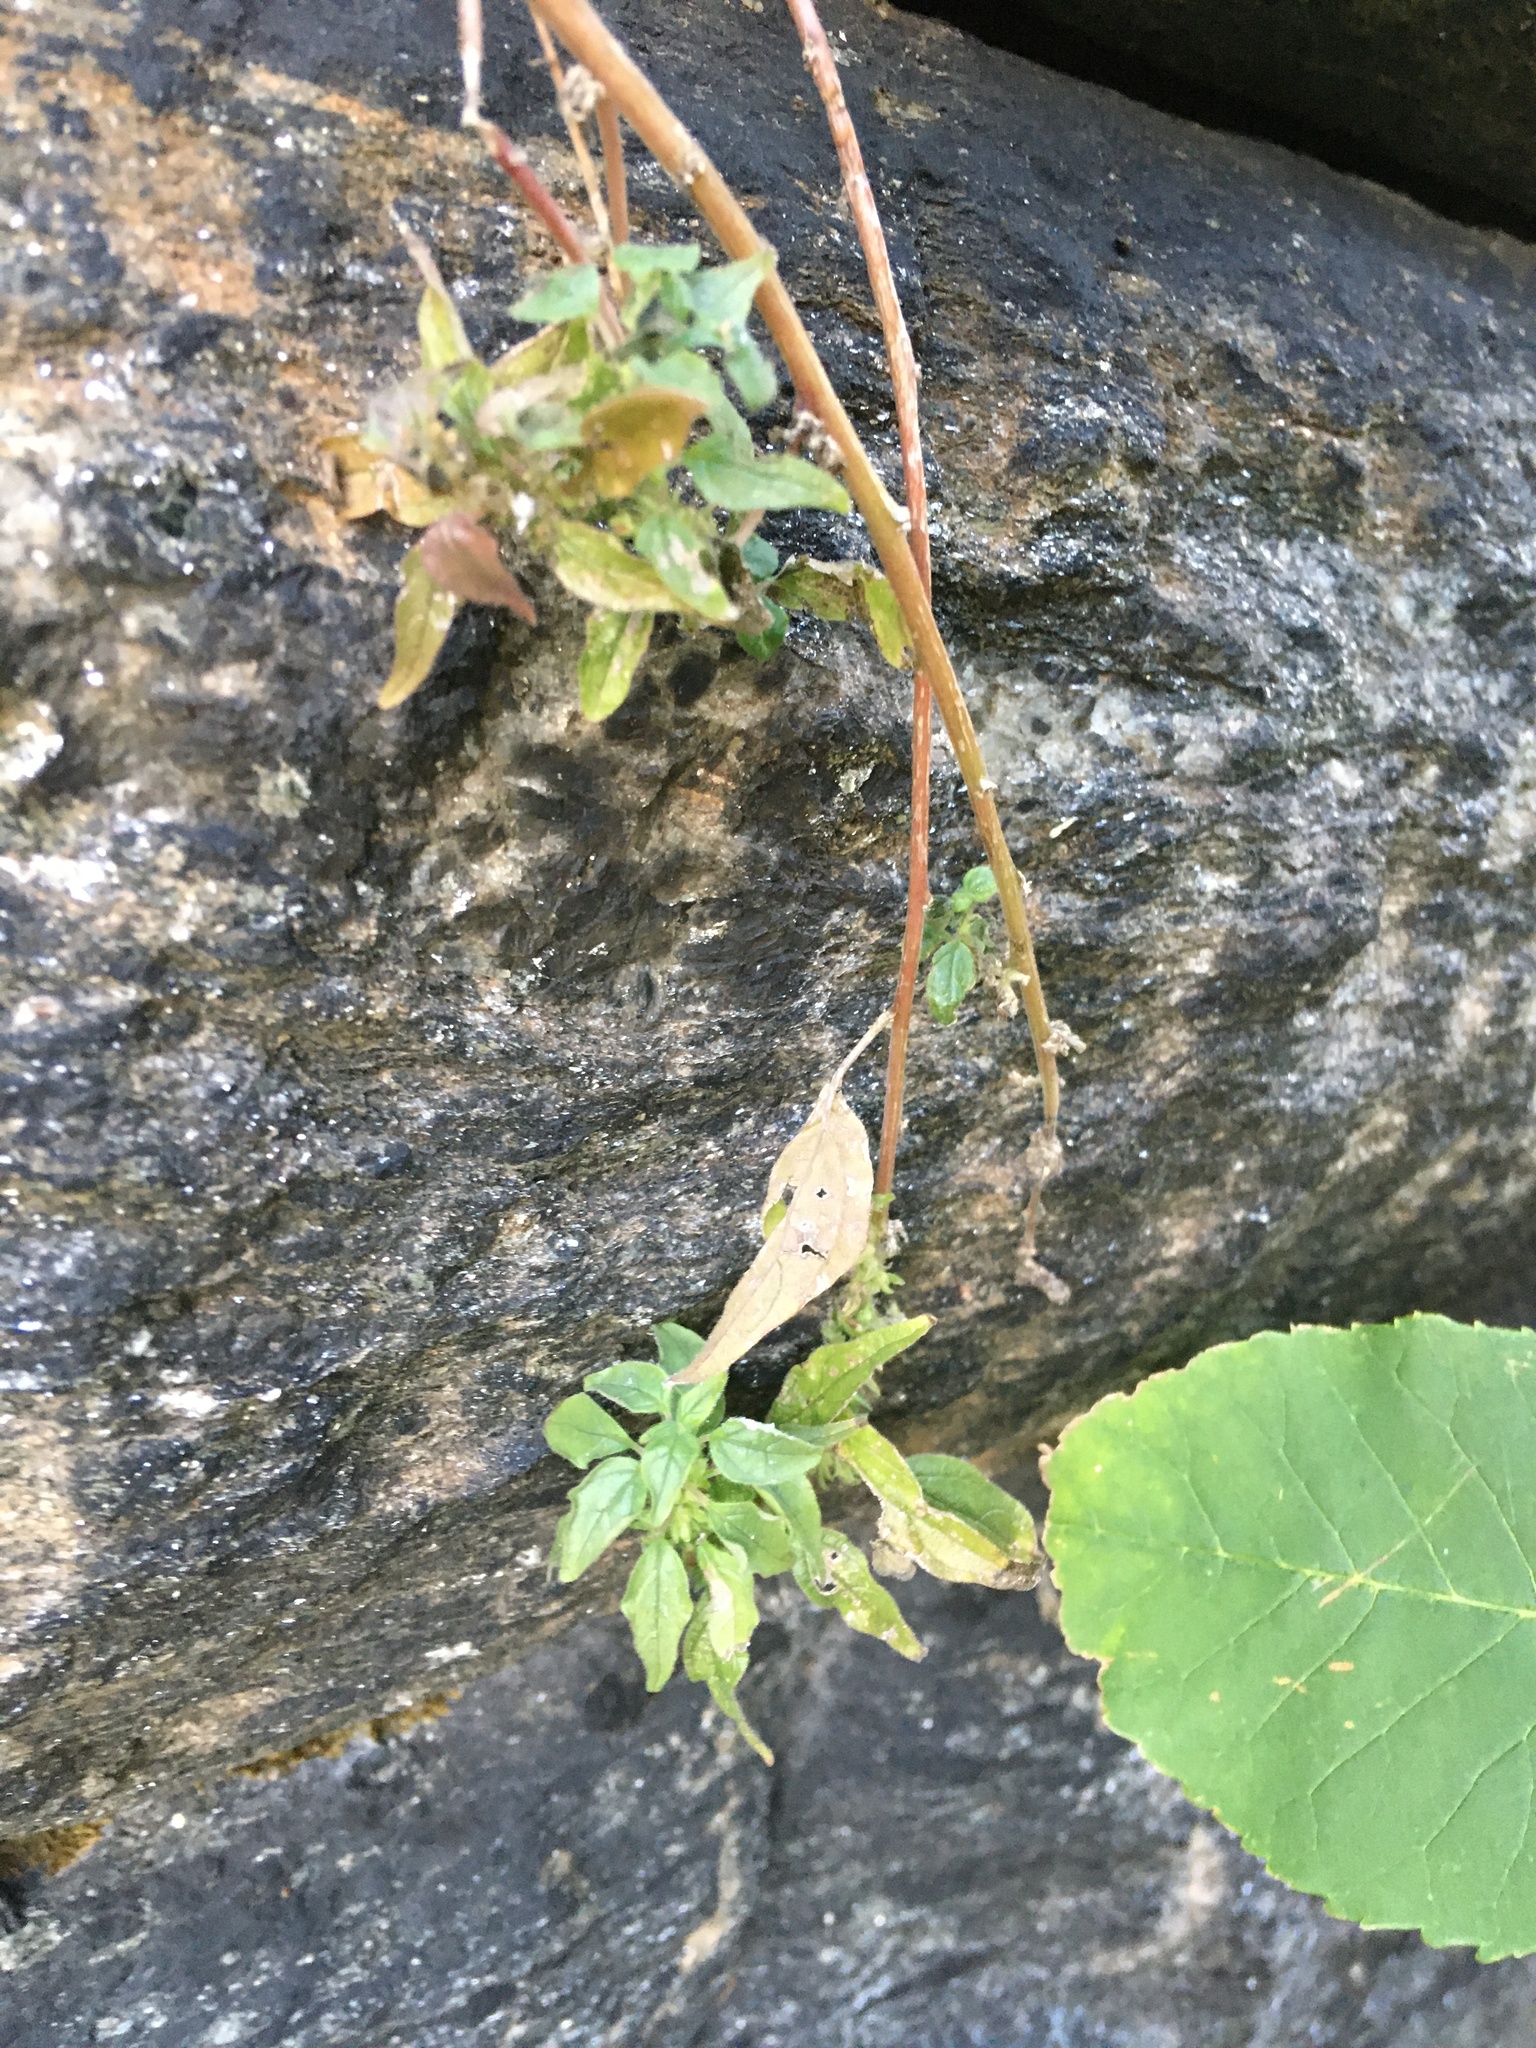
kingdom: Plantae
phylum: Tracheophyta
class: Magnoliopsida
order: Rosales
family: Urticaceae
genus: Parietaria
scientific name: Parietaria pensylvanica
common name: Pennsylvania pellitory
